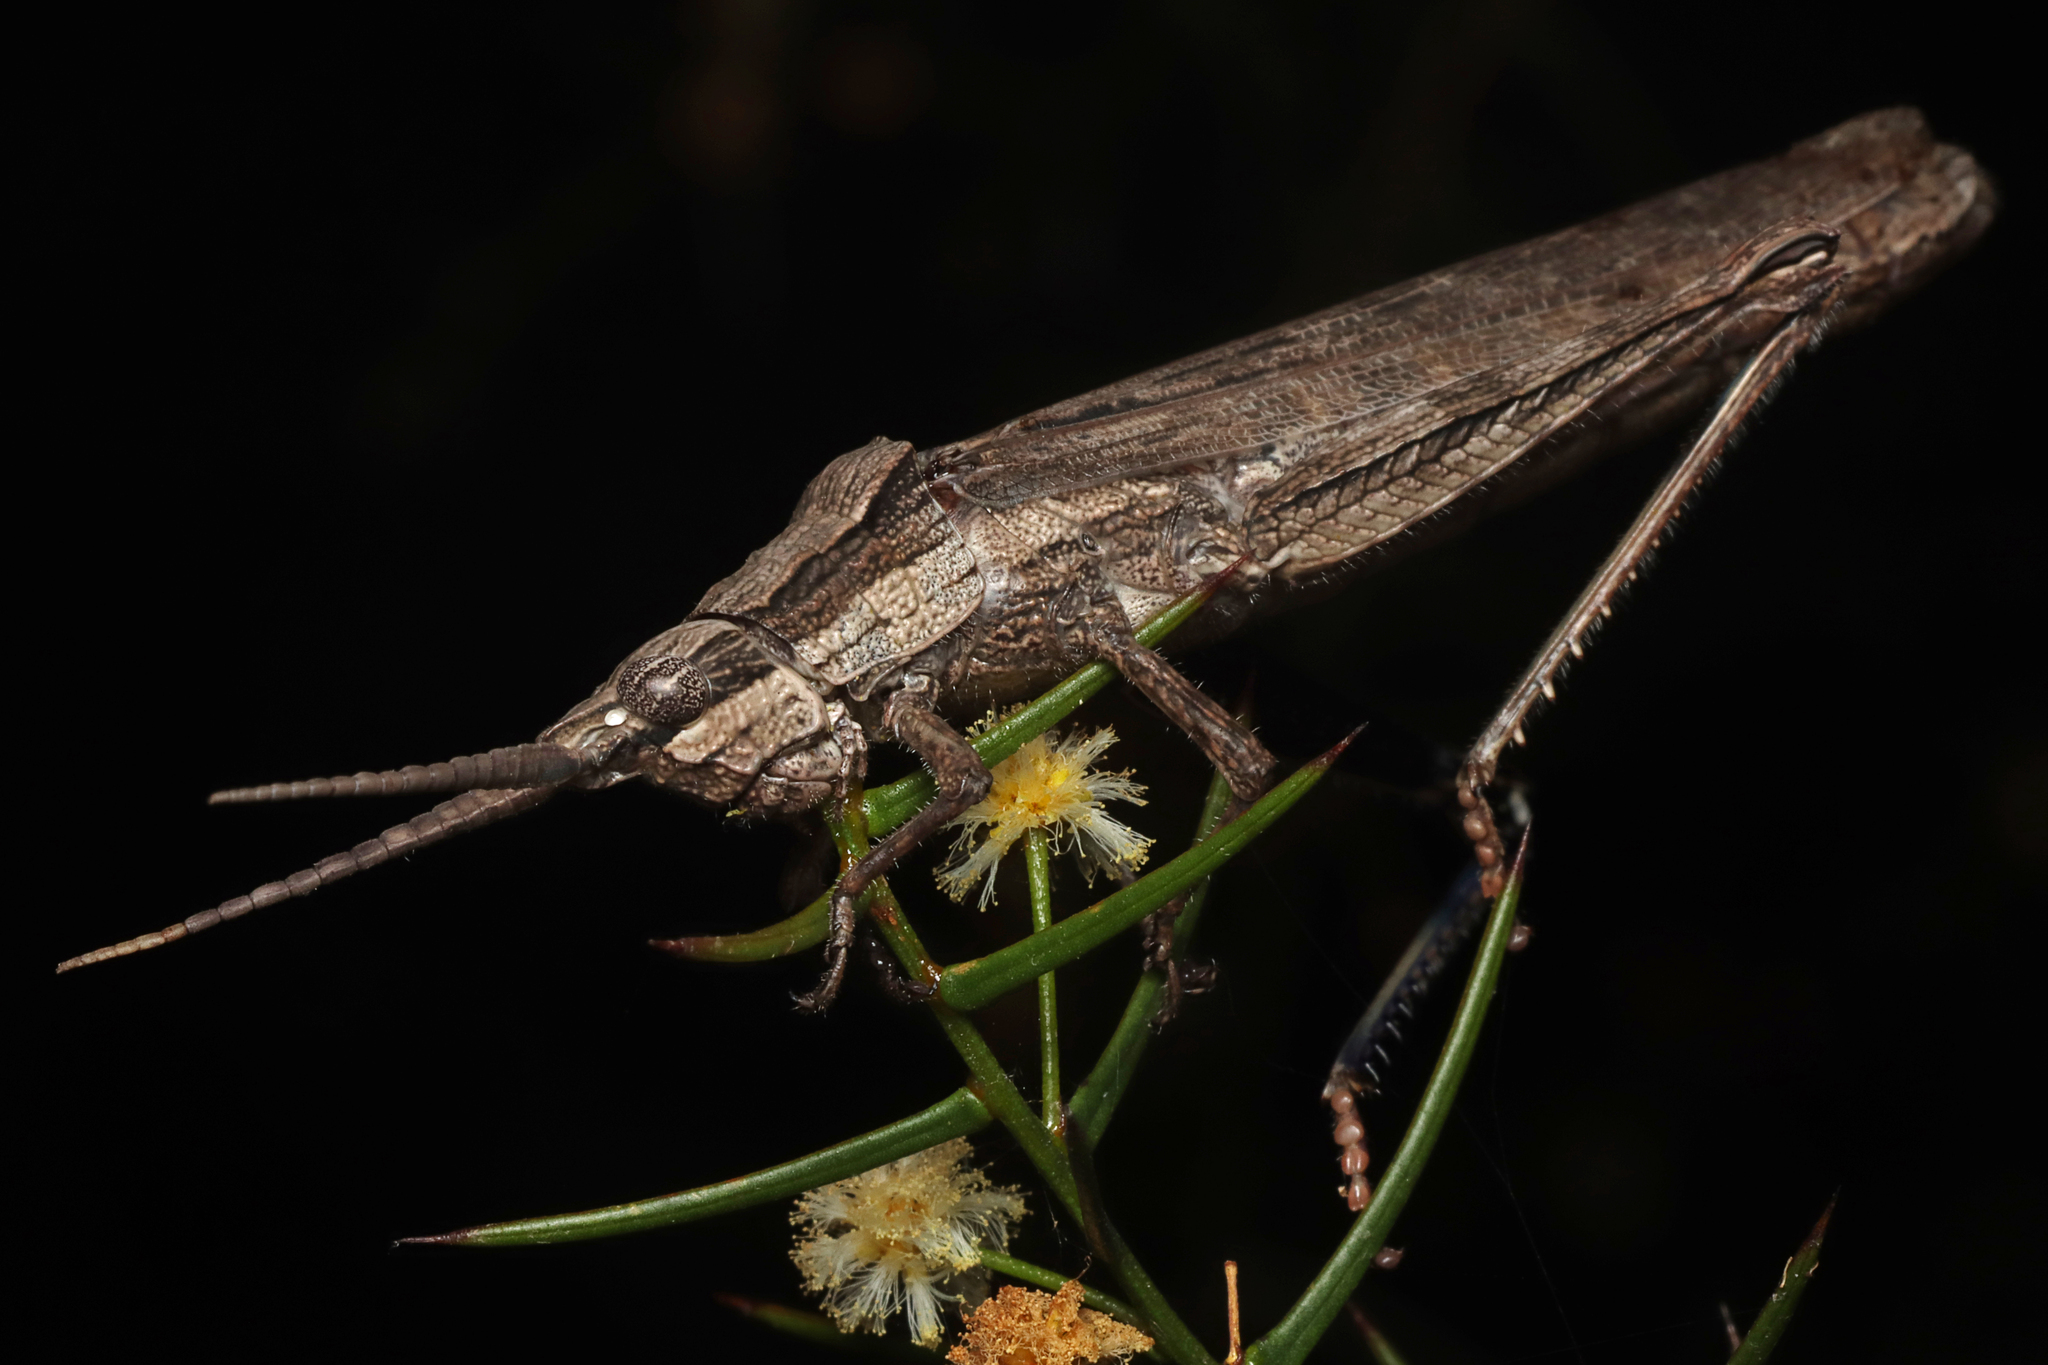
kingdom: Animalia
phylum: Arthropoda
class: Insecta
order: Orthoptera
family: Acrididae
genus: Coryphistes
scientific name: Coryphistes ruricola
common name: Bark-mimicking grasshopper
